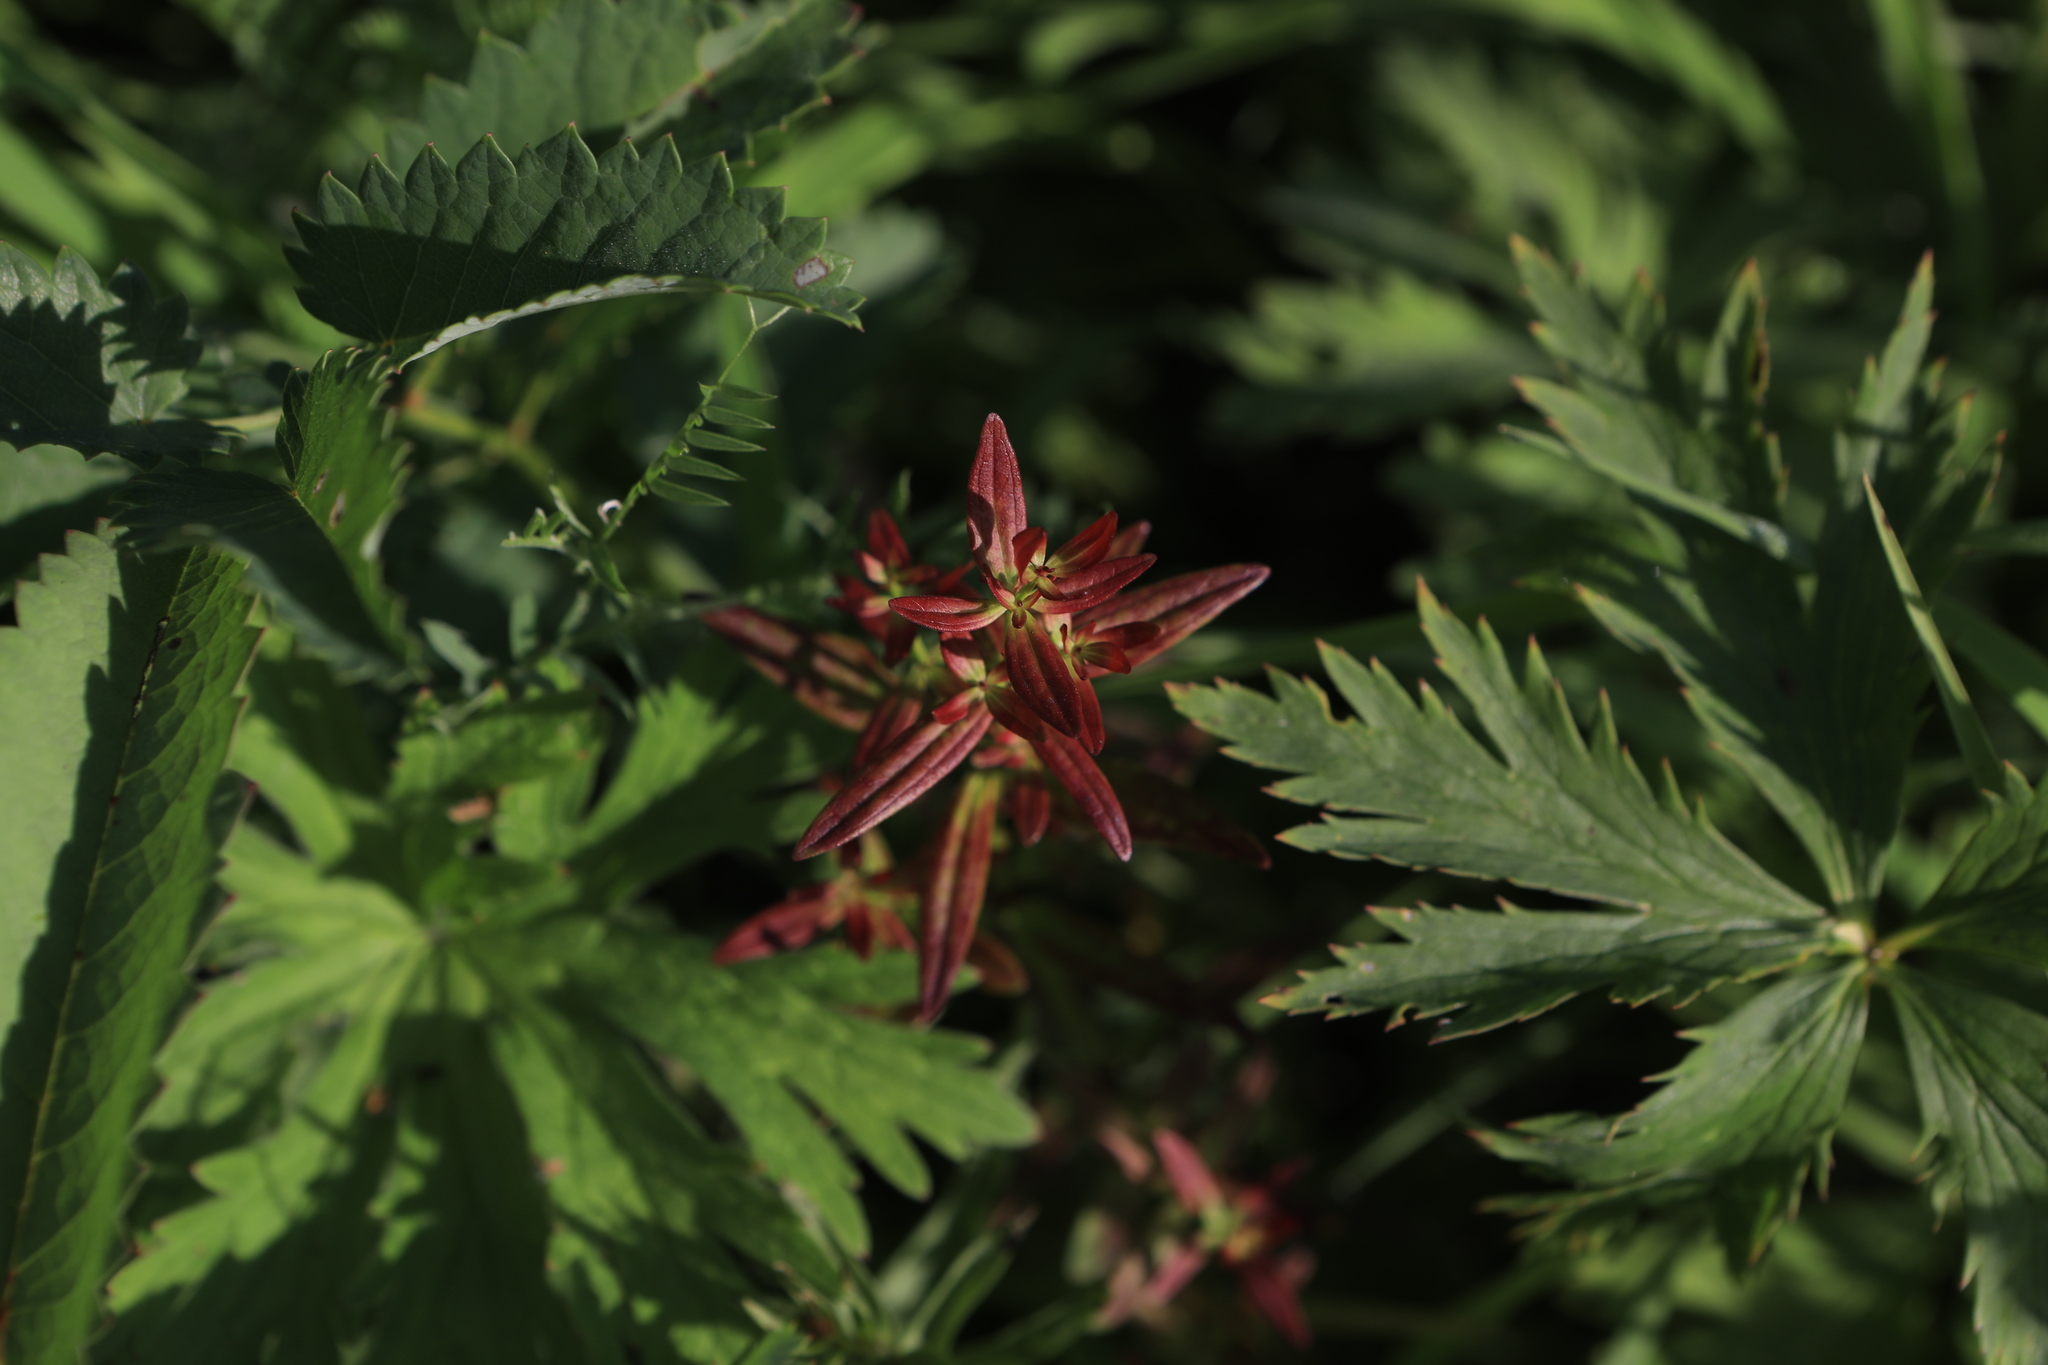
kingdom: Plantae
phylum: Tracheophyta
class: Magnoliopsida
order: Gentianales
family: Rubiaceae
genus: Galium
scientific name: Galium boreale
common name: Northern bedstraw
